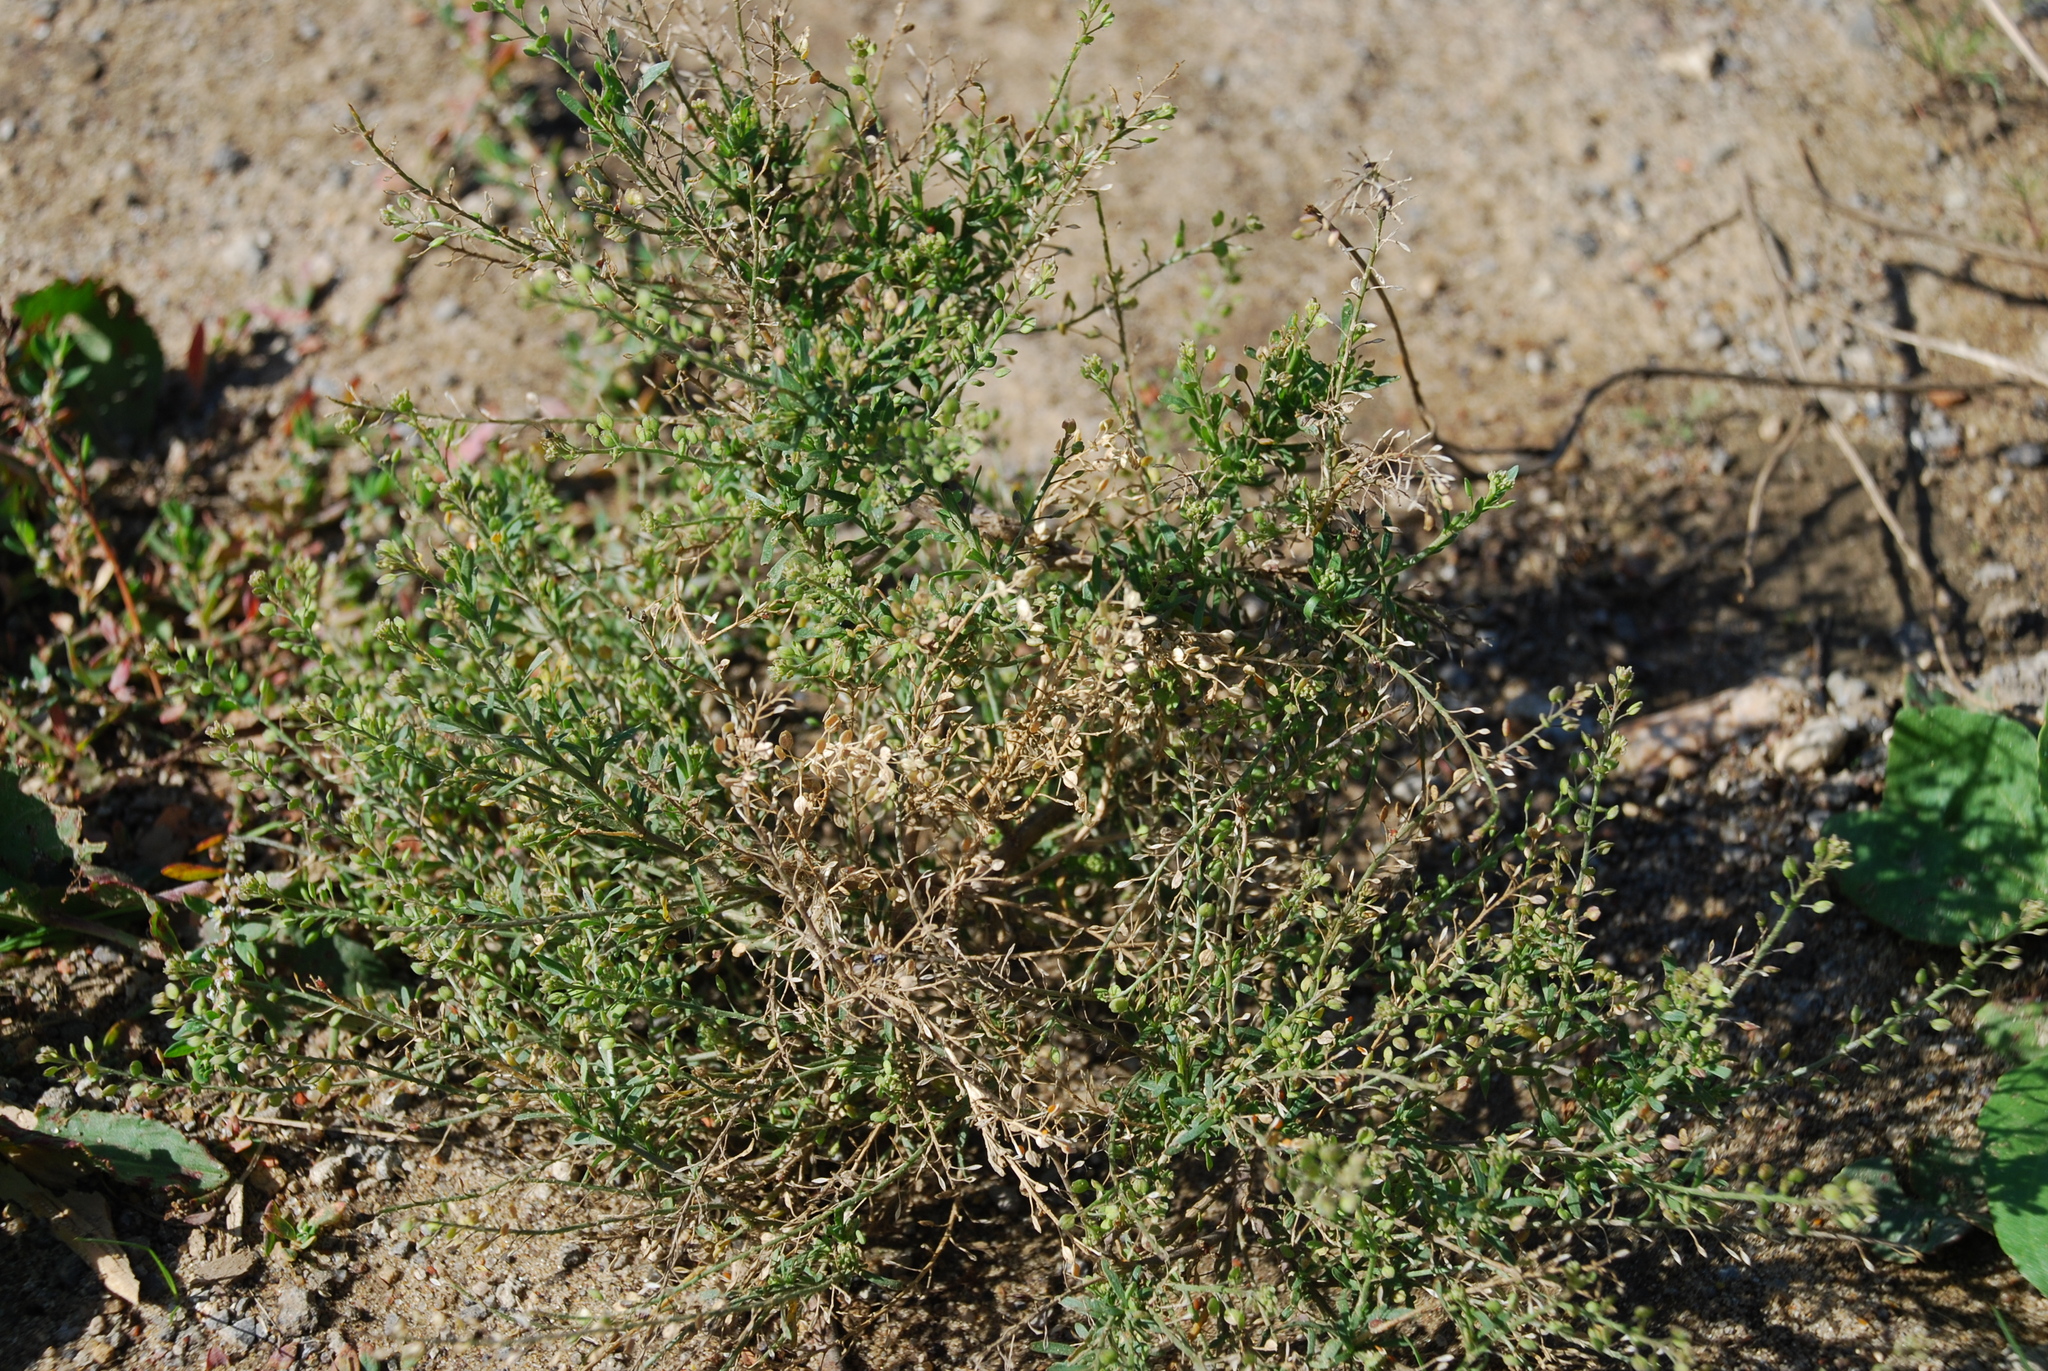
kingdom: Plantae
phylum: Tracheophyta
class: Magnoliopsida
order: Brassicales
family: Brassicaceae
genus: Lepidium
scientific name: Lepidium ruderale
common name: Narrow-leaved pepperwort
